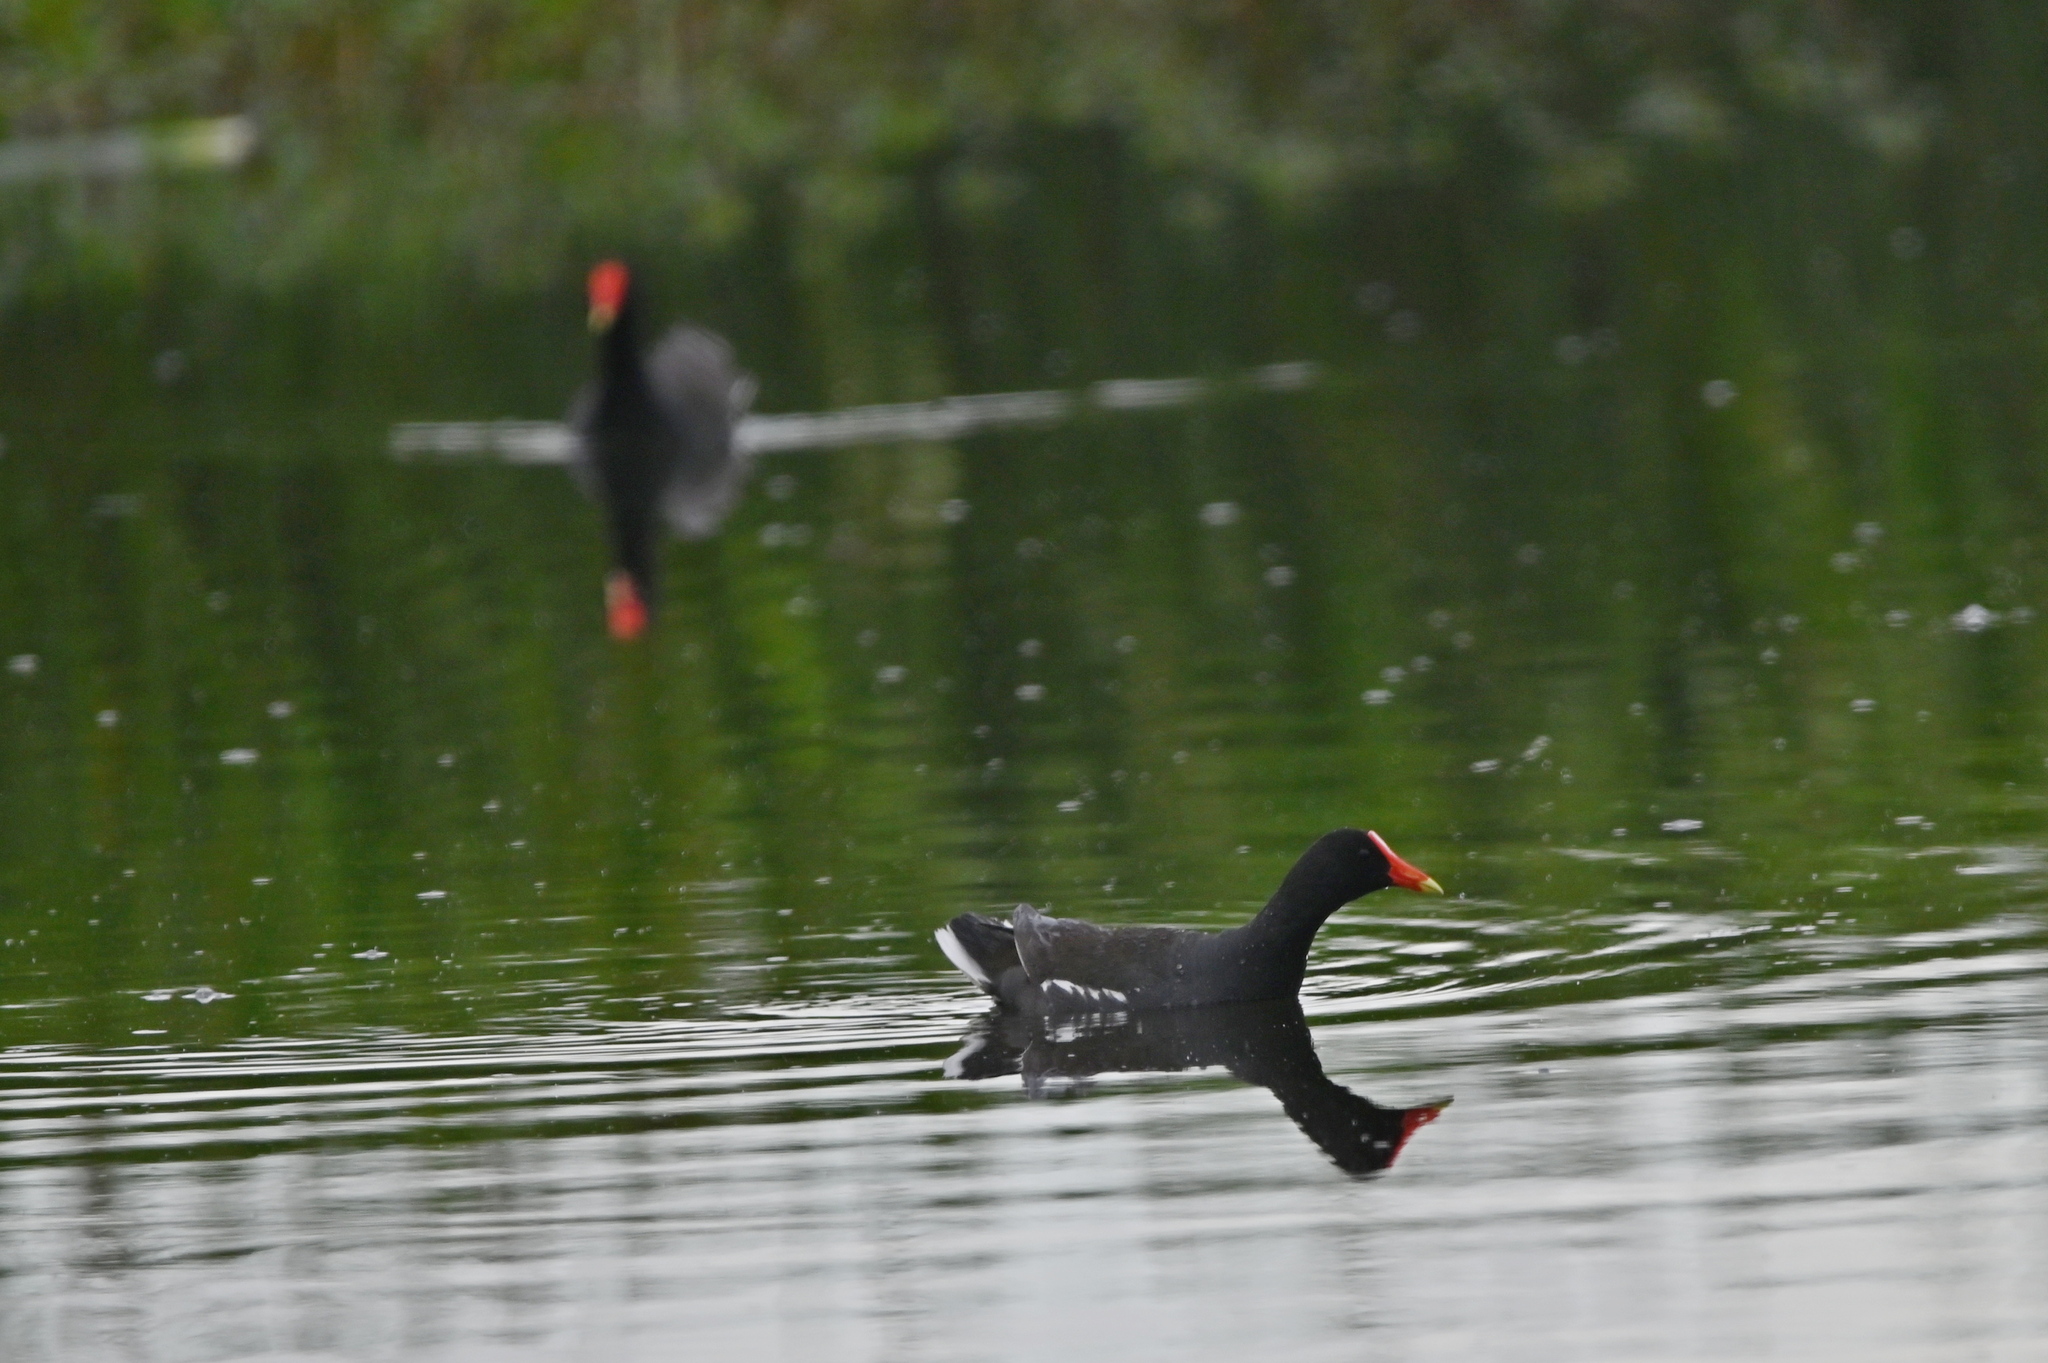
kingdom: Animalia
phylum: Chordata
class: Aves
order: Gruiformes
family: Rallidae
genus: Gallinula
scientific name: Gallinula chloropus
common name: Common moorhen
